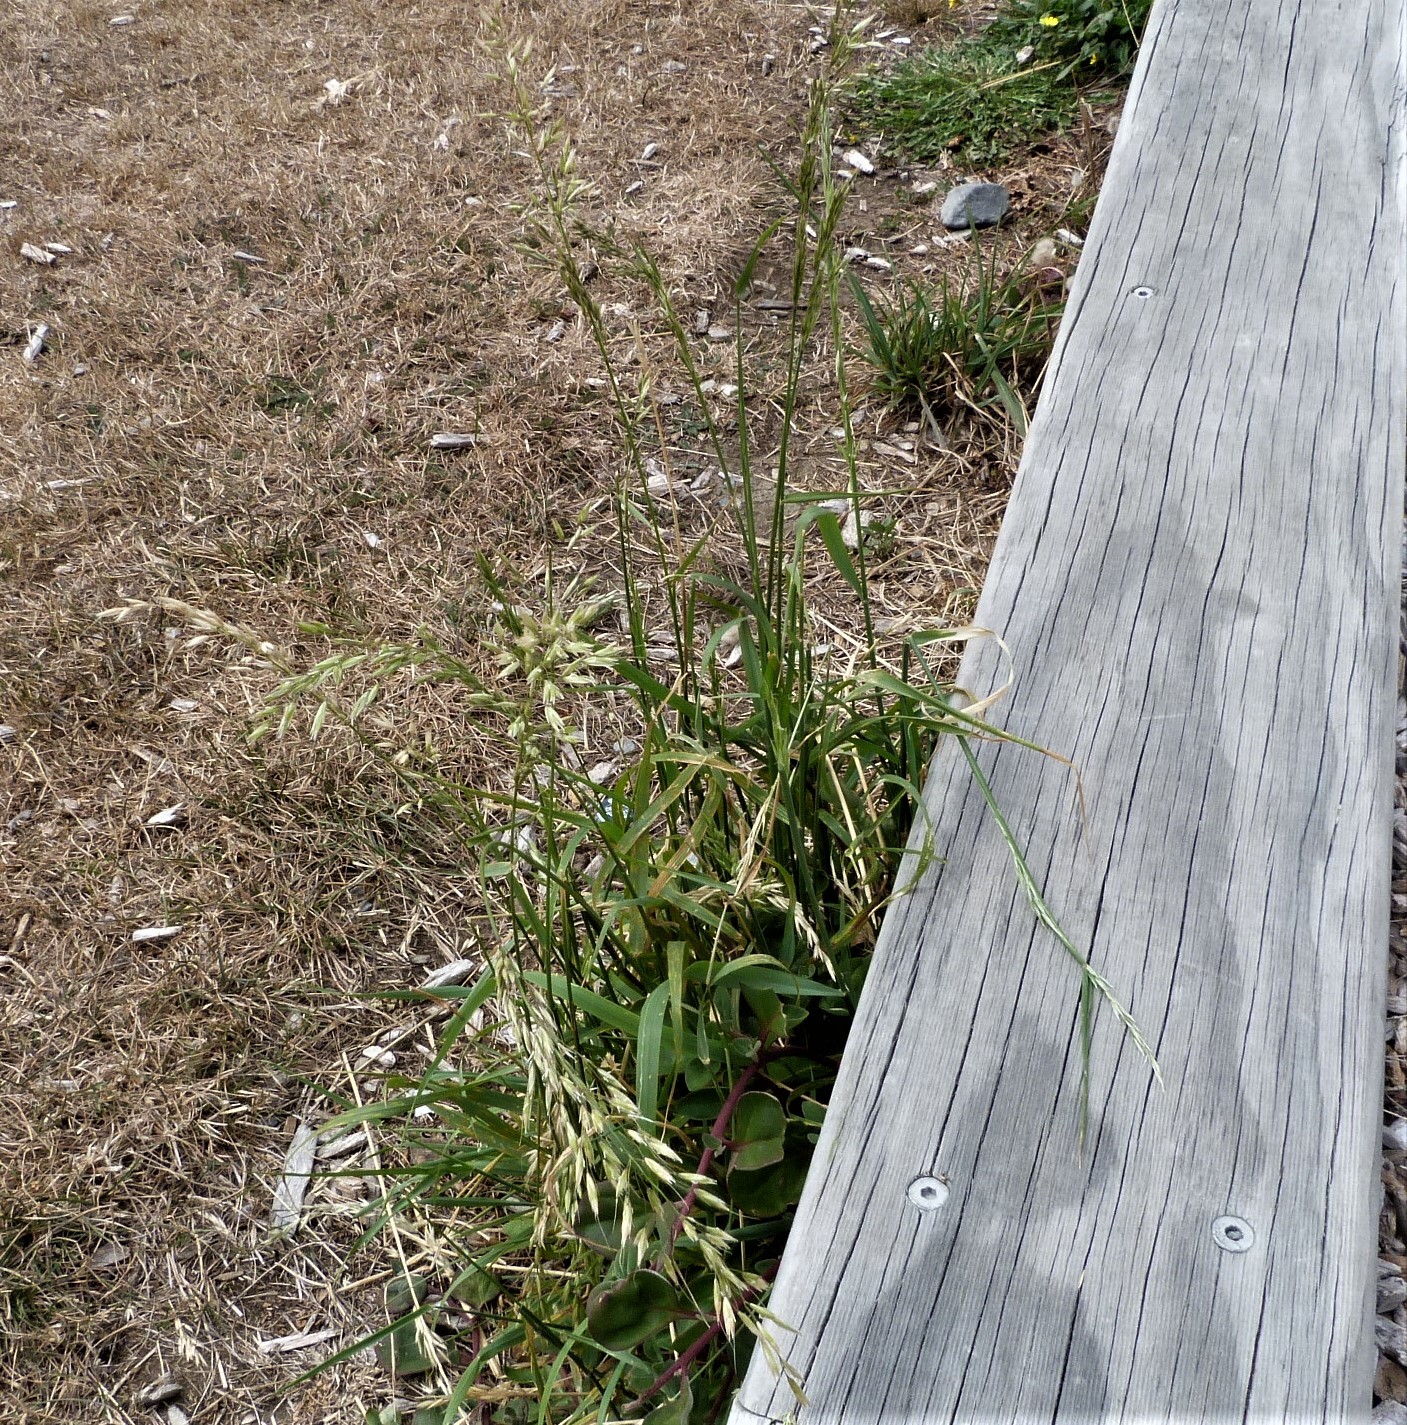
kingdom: Plantae
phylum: Tracheophyta
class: Liliopsida
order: Poales
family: Poaceae
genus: Arrhenatherum
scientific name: Arrhenatherum elatius
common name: Tall oatgrass
